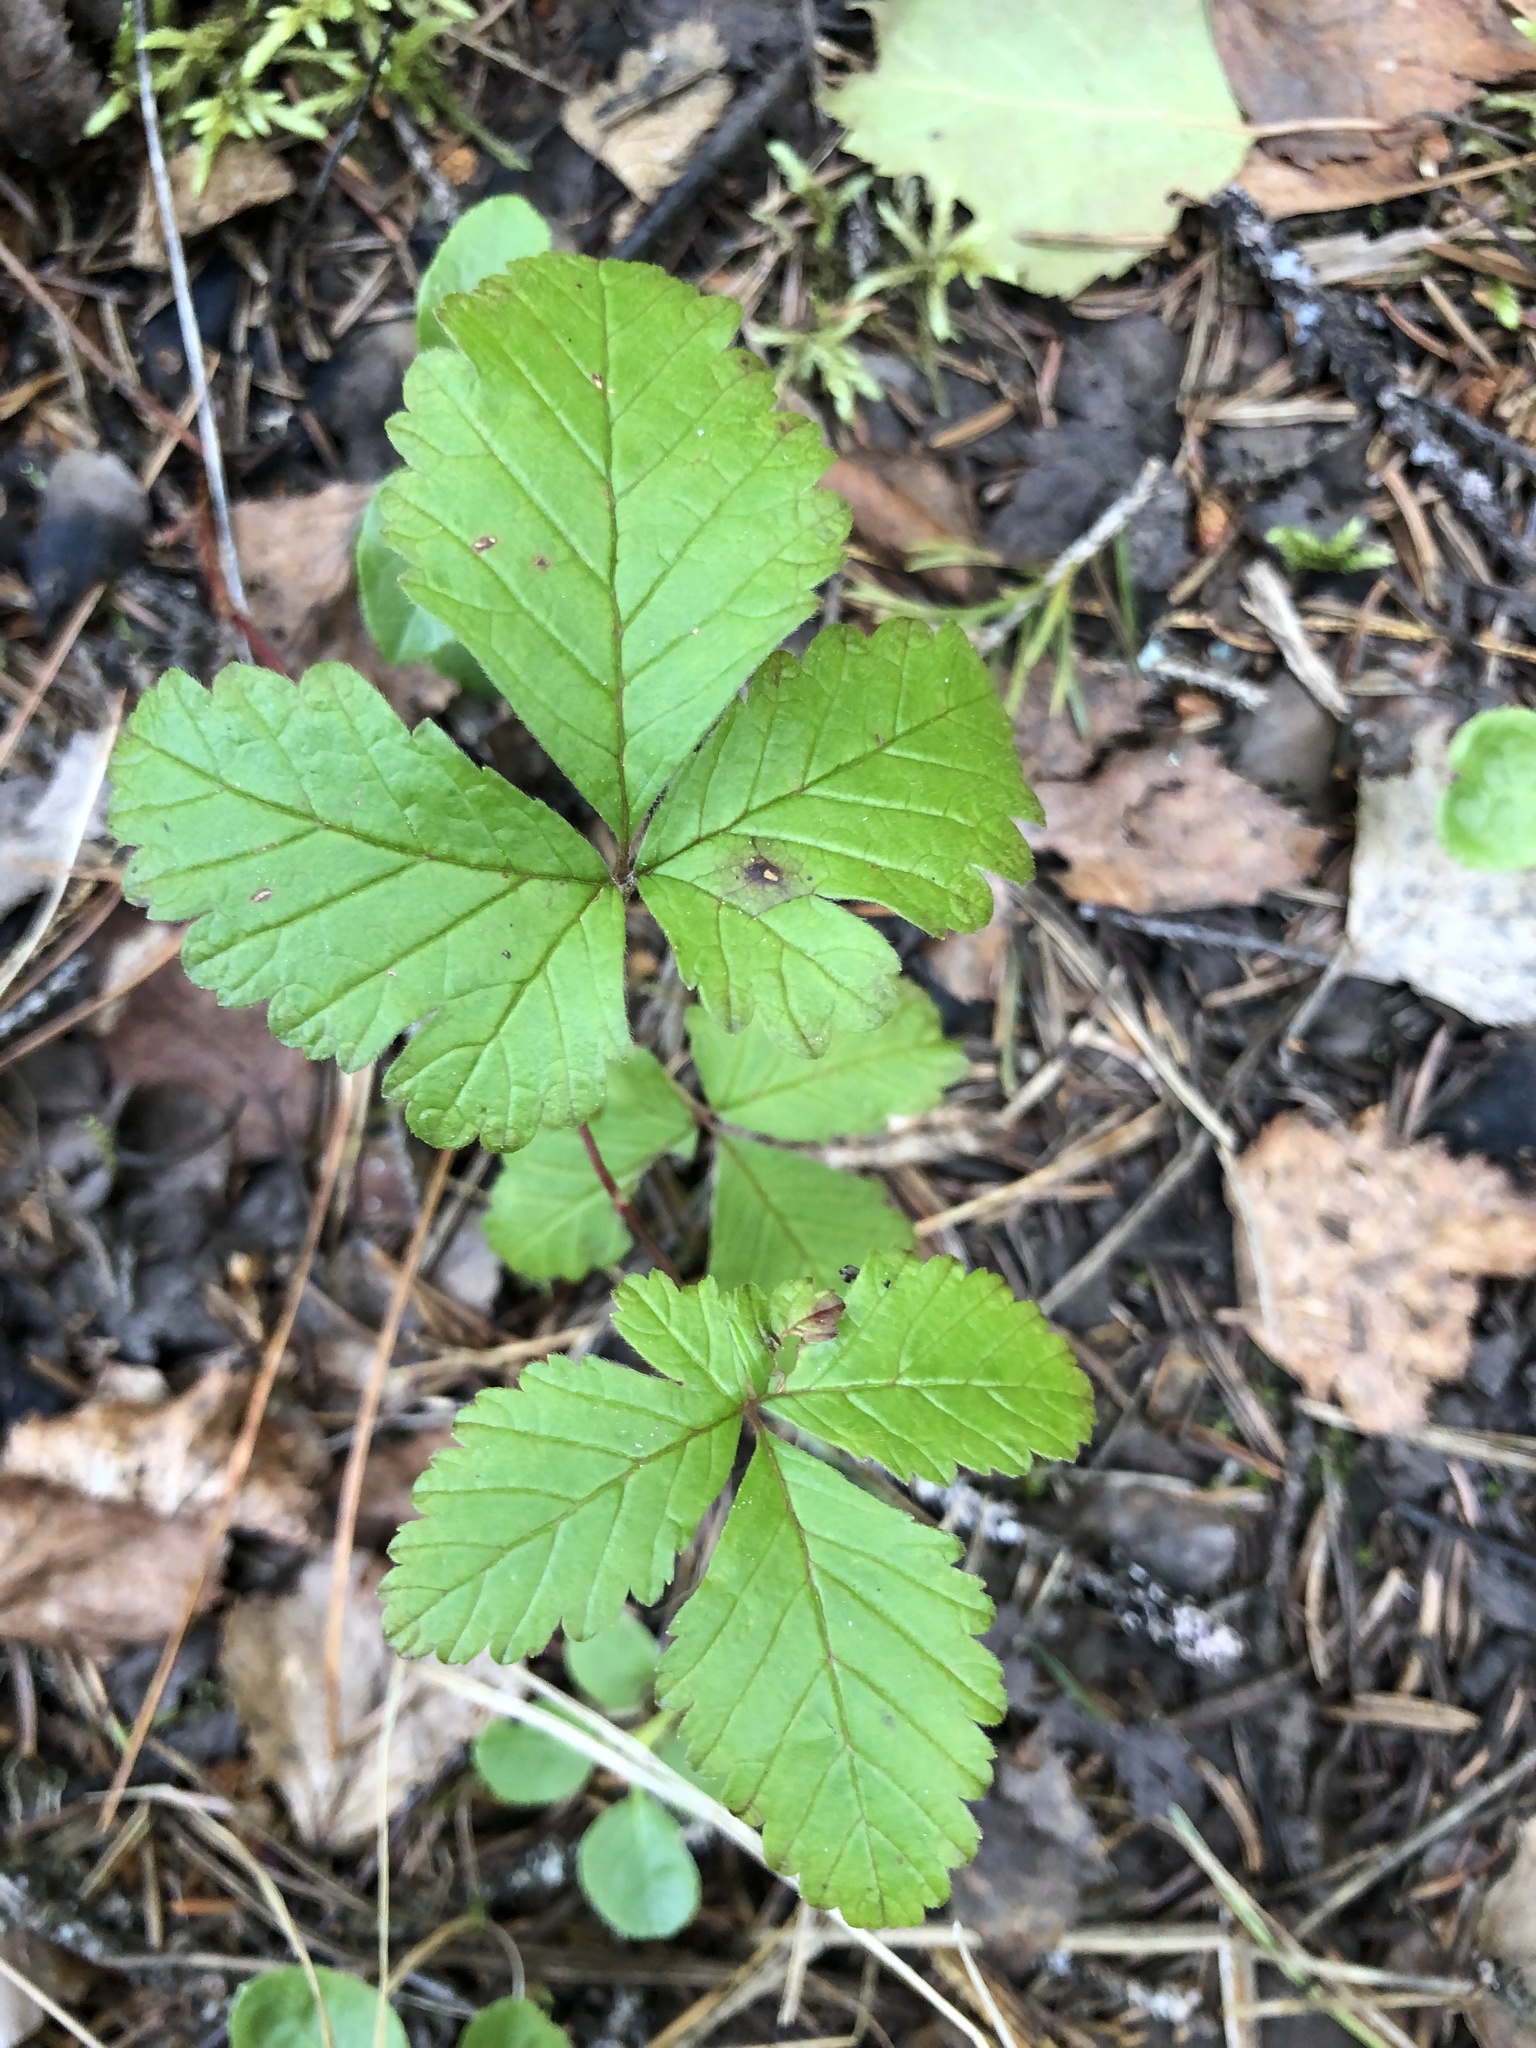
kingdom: Plantae
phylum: Tracheophyta
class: Magnoliopsida
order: Rosales
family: Rosaceae
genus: Rubus
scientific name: Rubus arcticus
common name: Arctic bramble
